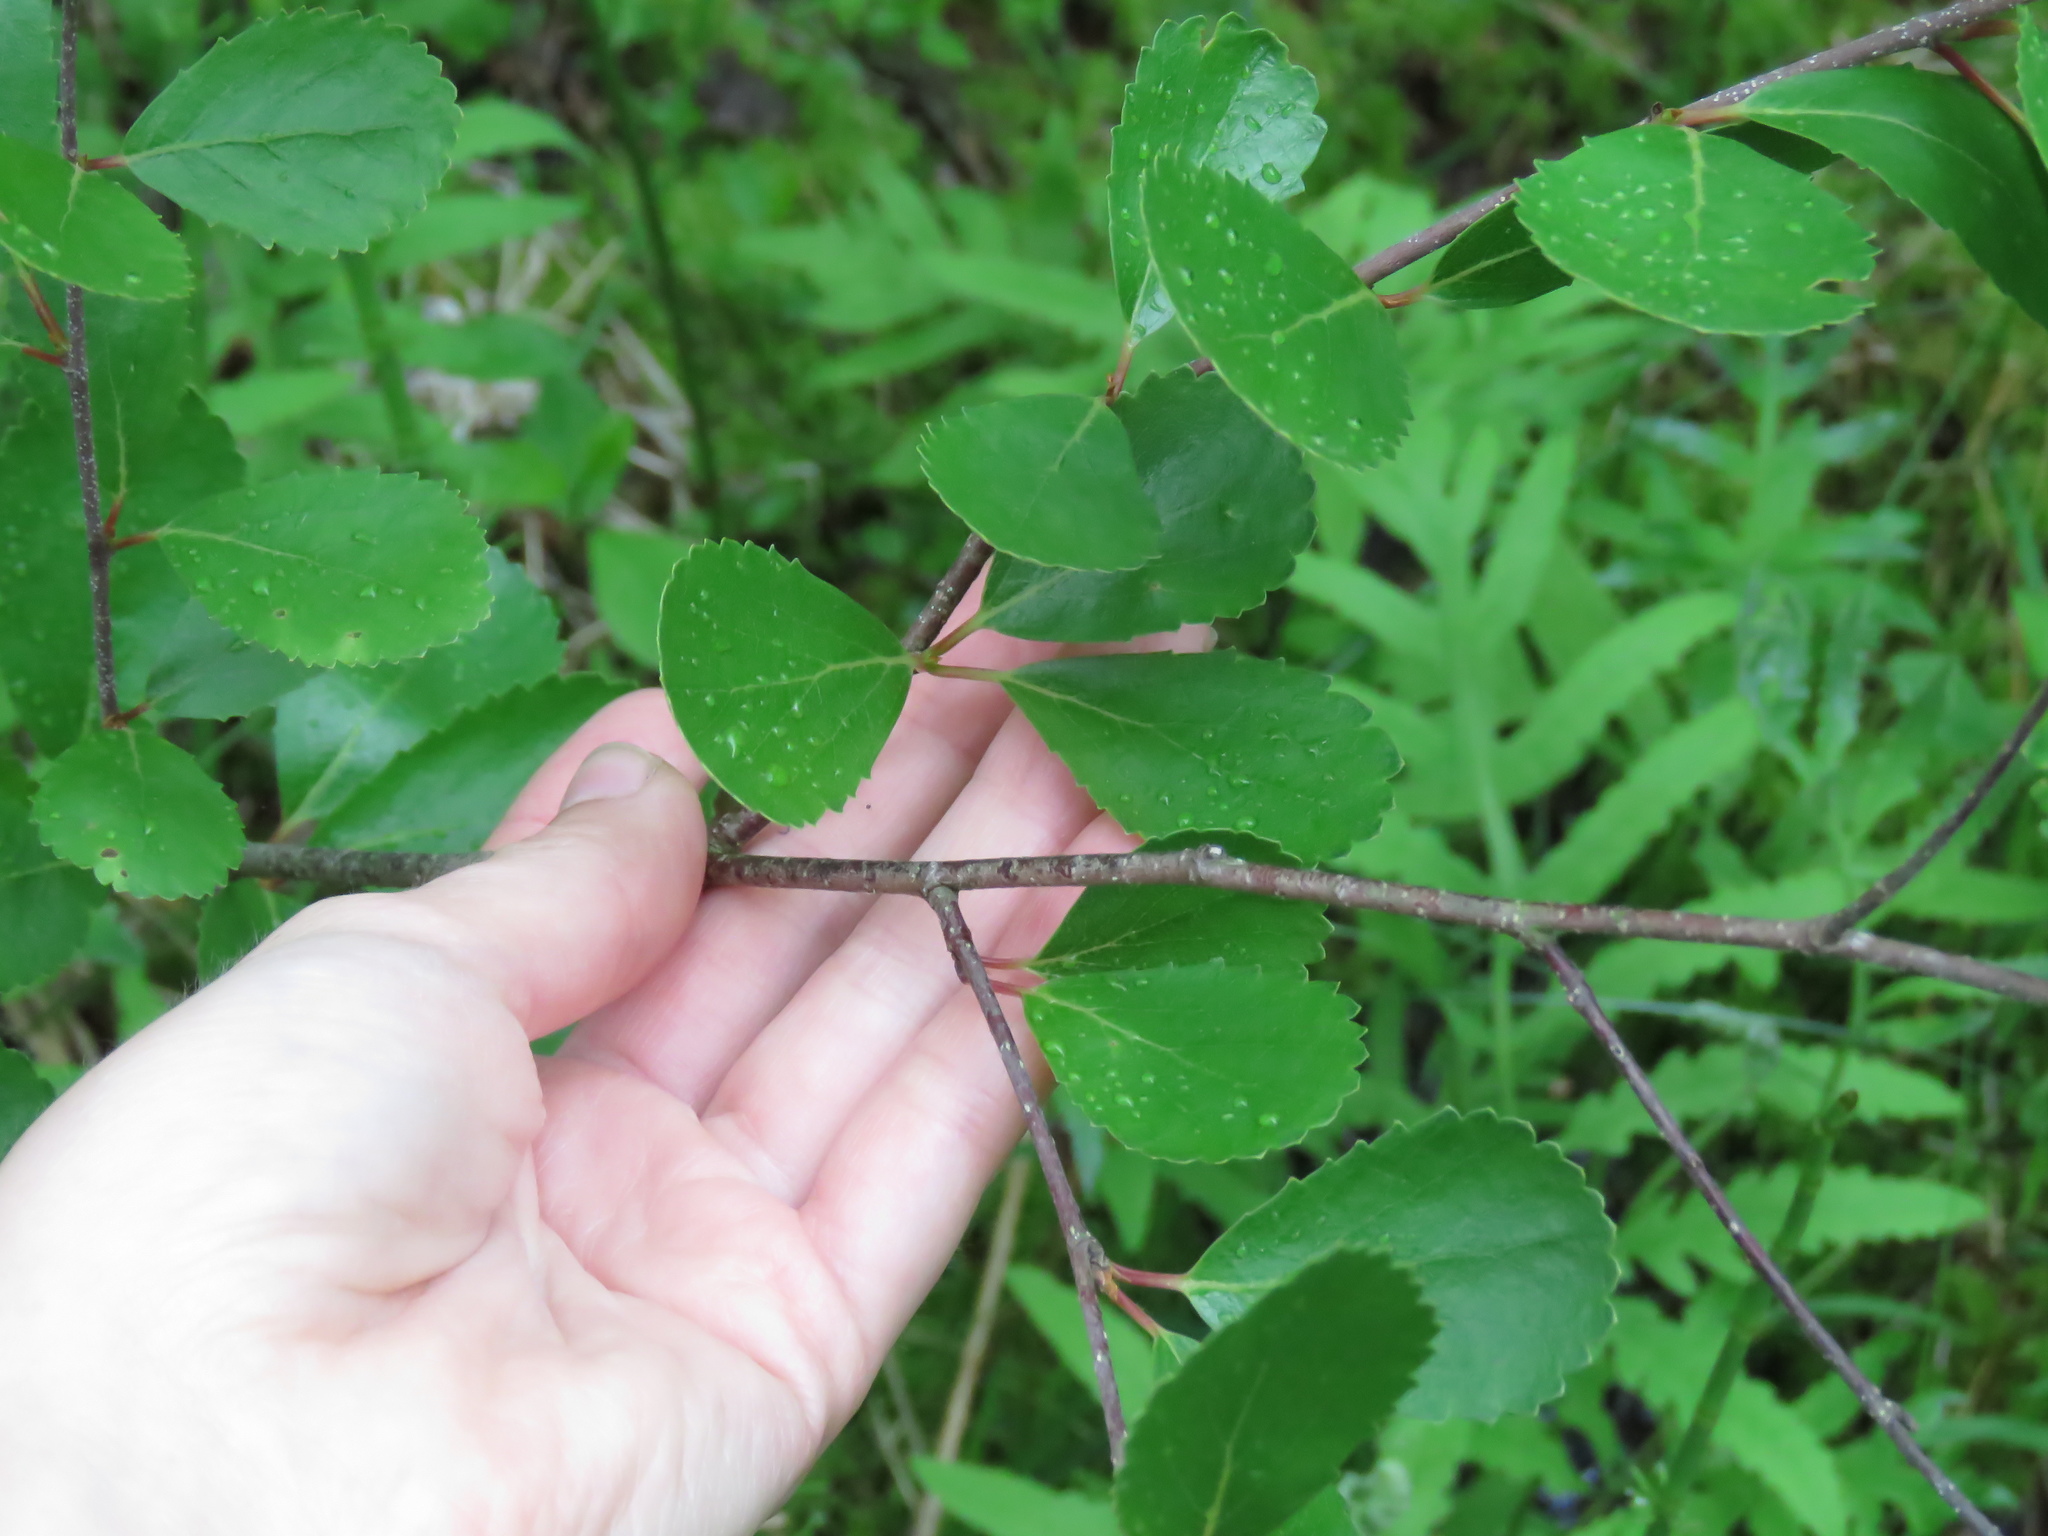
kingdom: Plantae
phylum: Tracheophyta
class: Magnoliopsida
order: Fagales
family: Betulaceae
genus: Betula
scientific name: Betula pumila
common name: Bog birch
